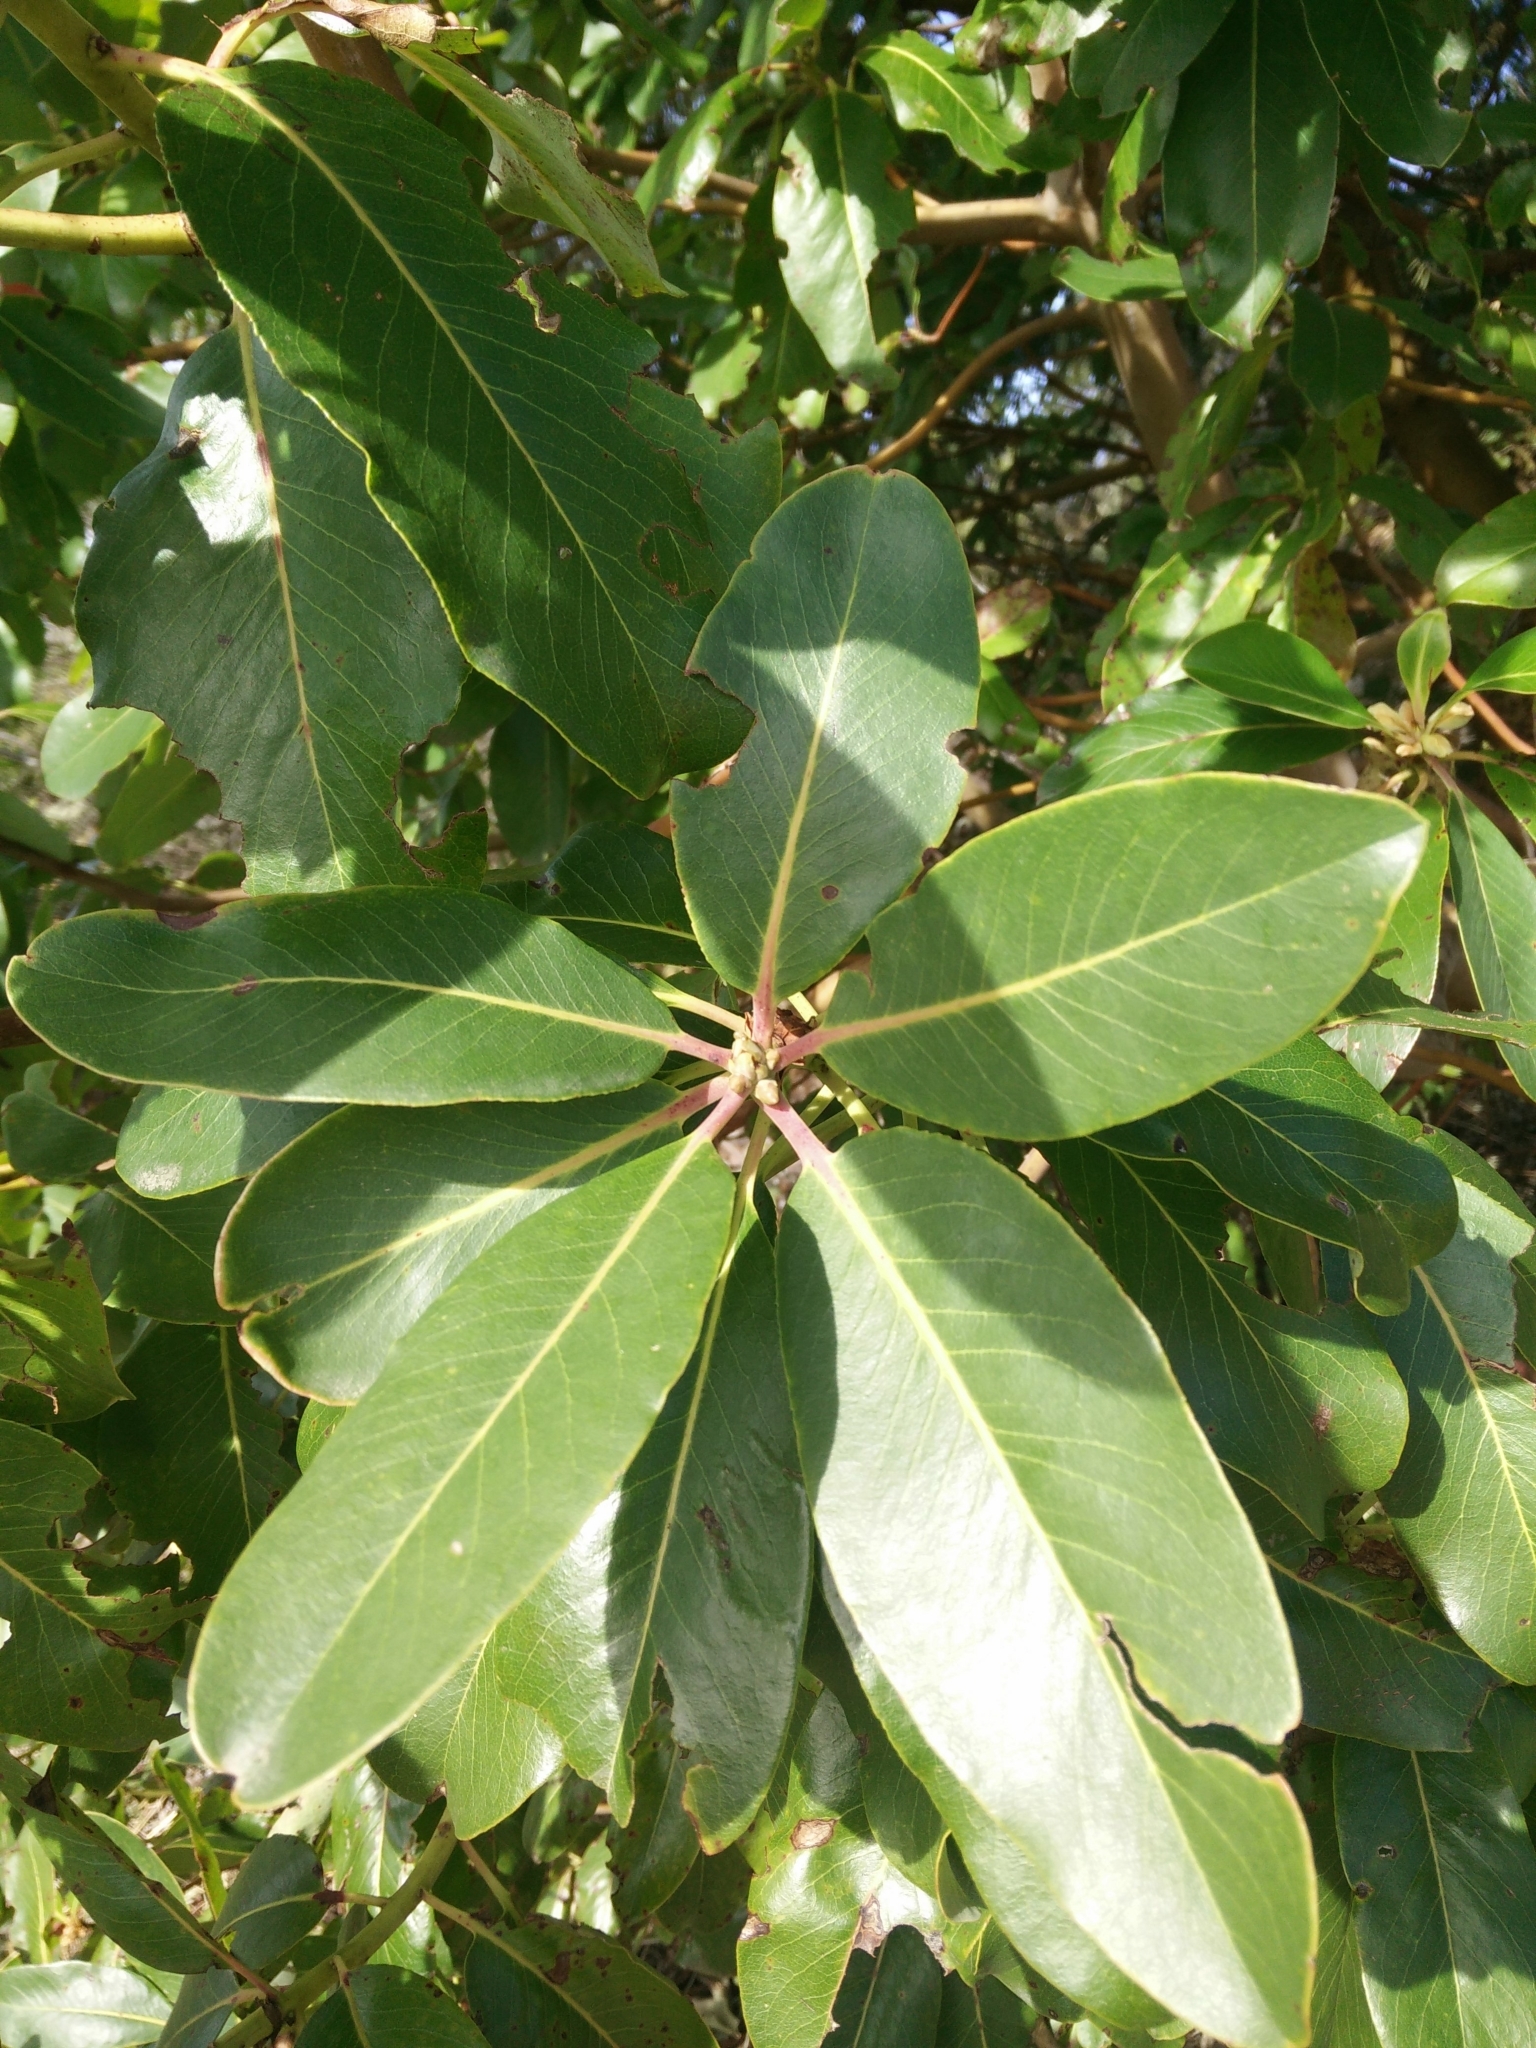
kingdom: Plantae
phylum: Tracheophyta
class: Magnoliopsida
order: Ericales
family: Ericaceae
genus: Arbutus
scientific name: Arbutus menziesii
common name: Pacific madrone
